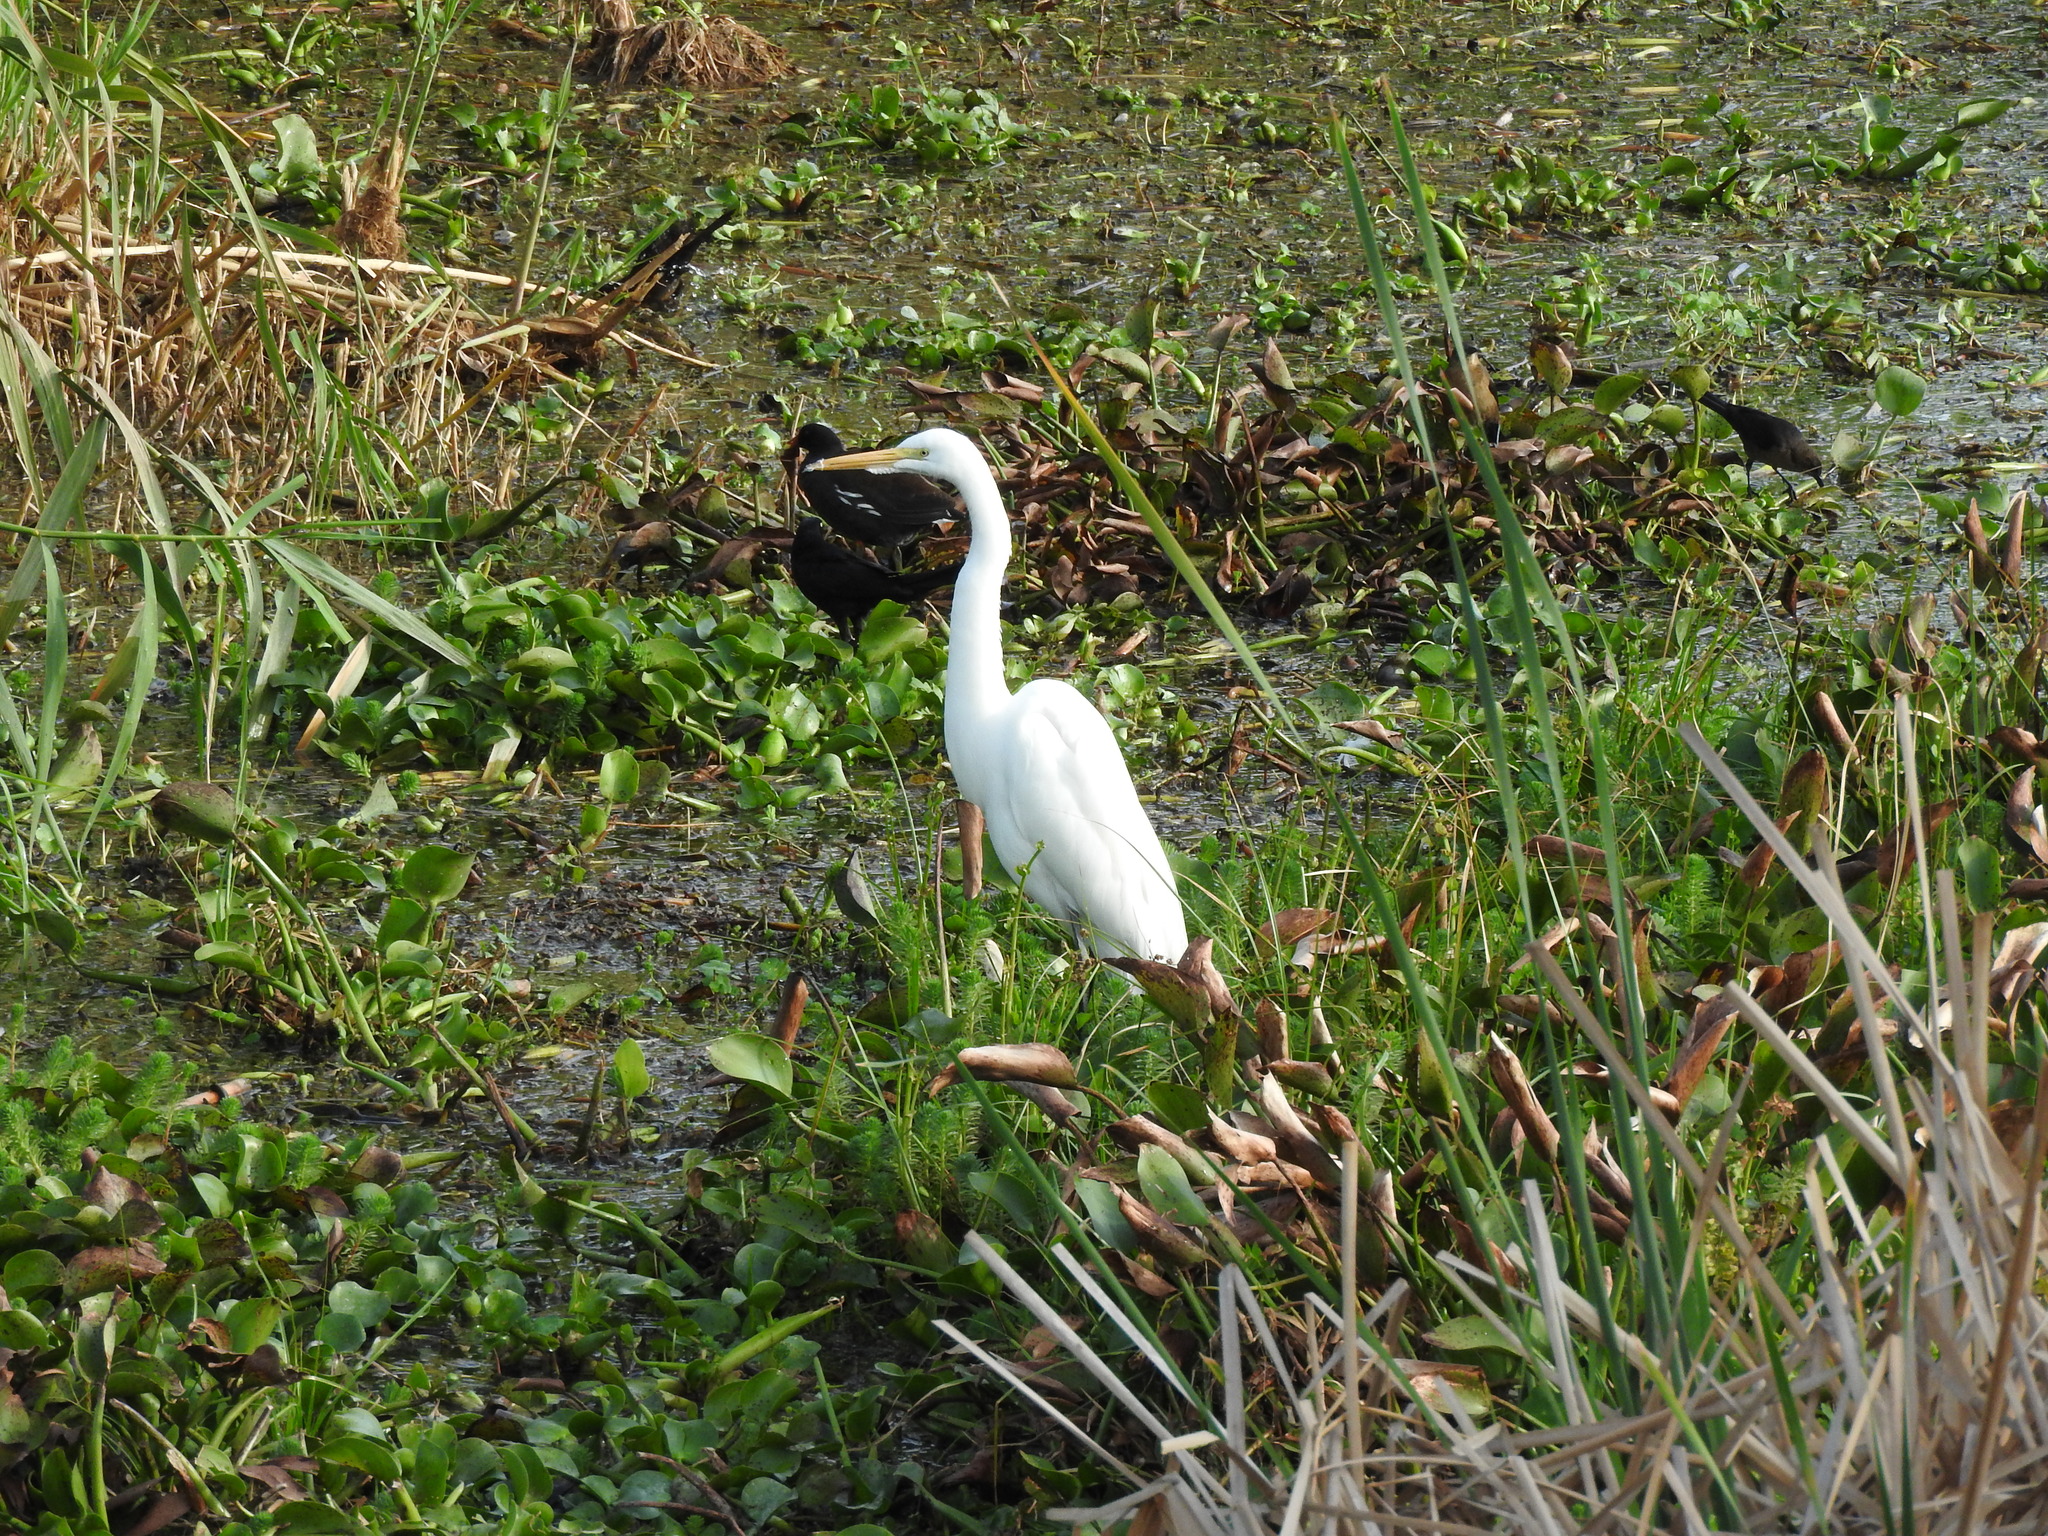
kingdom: Animalia
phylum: Chordata
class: Aves
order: Pelecaniformes
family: Ardeidae
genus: Ardea
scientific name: Ardea alba
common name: Great egret
